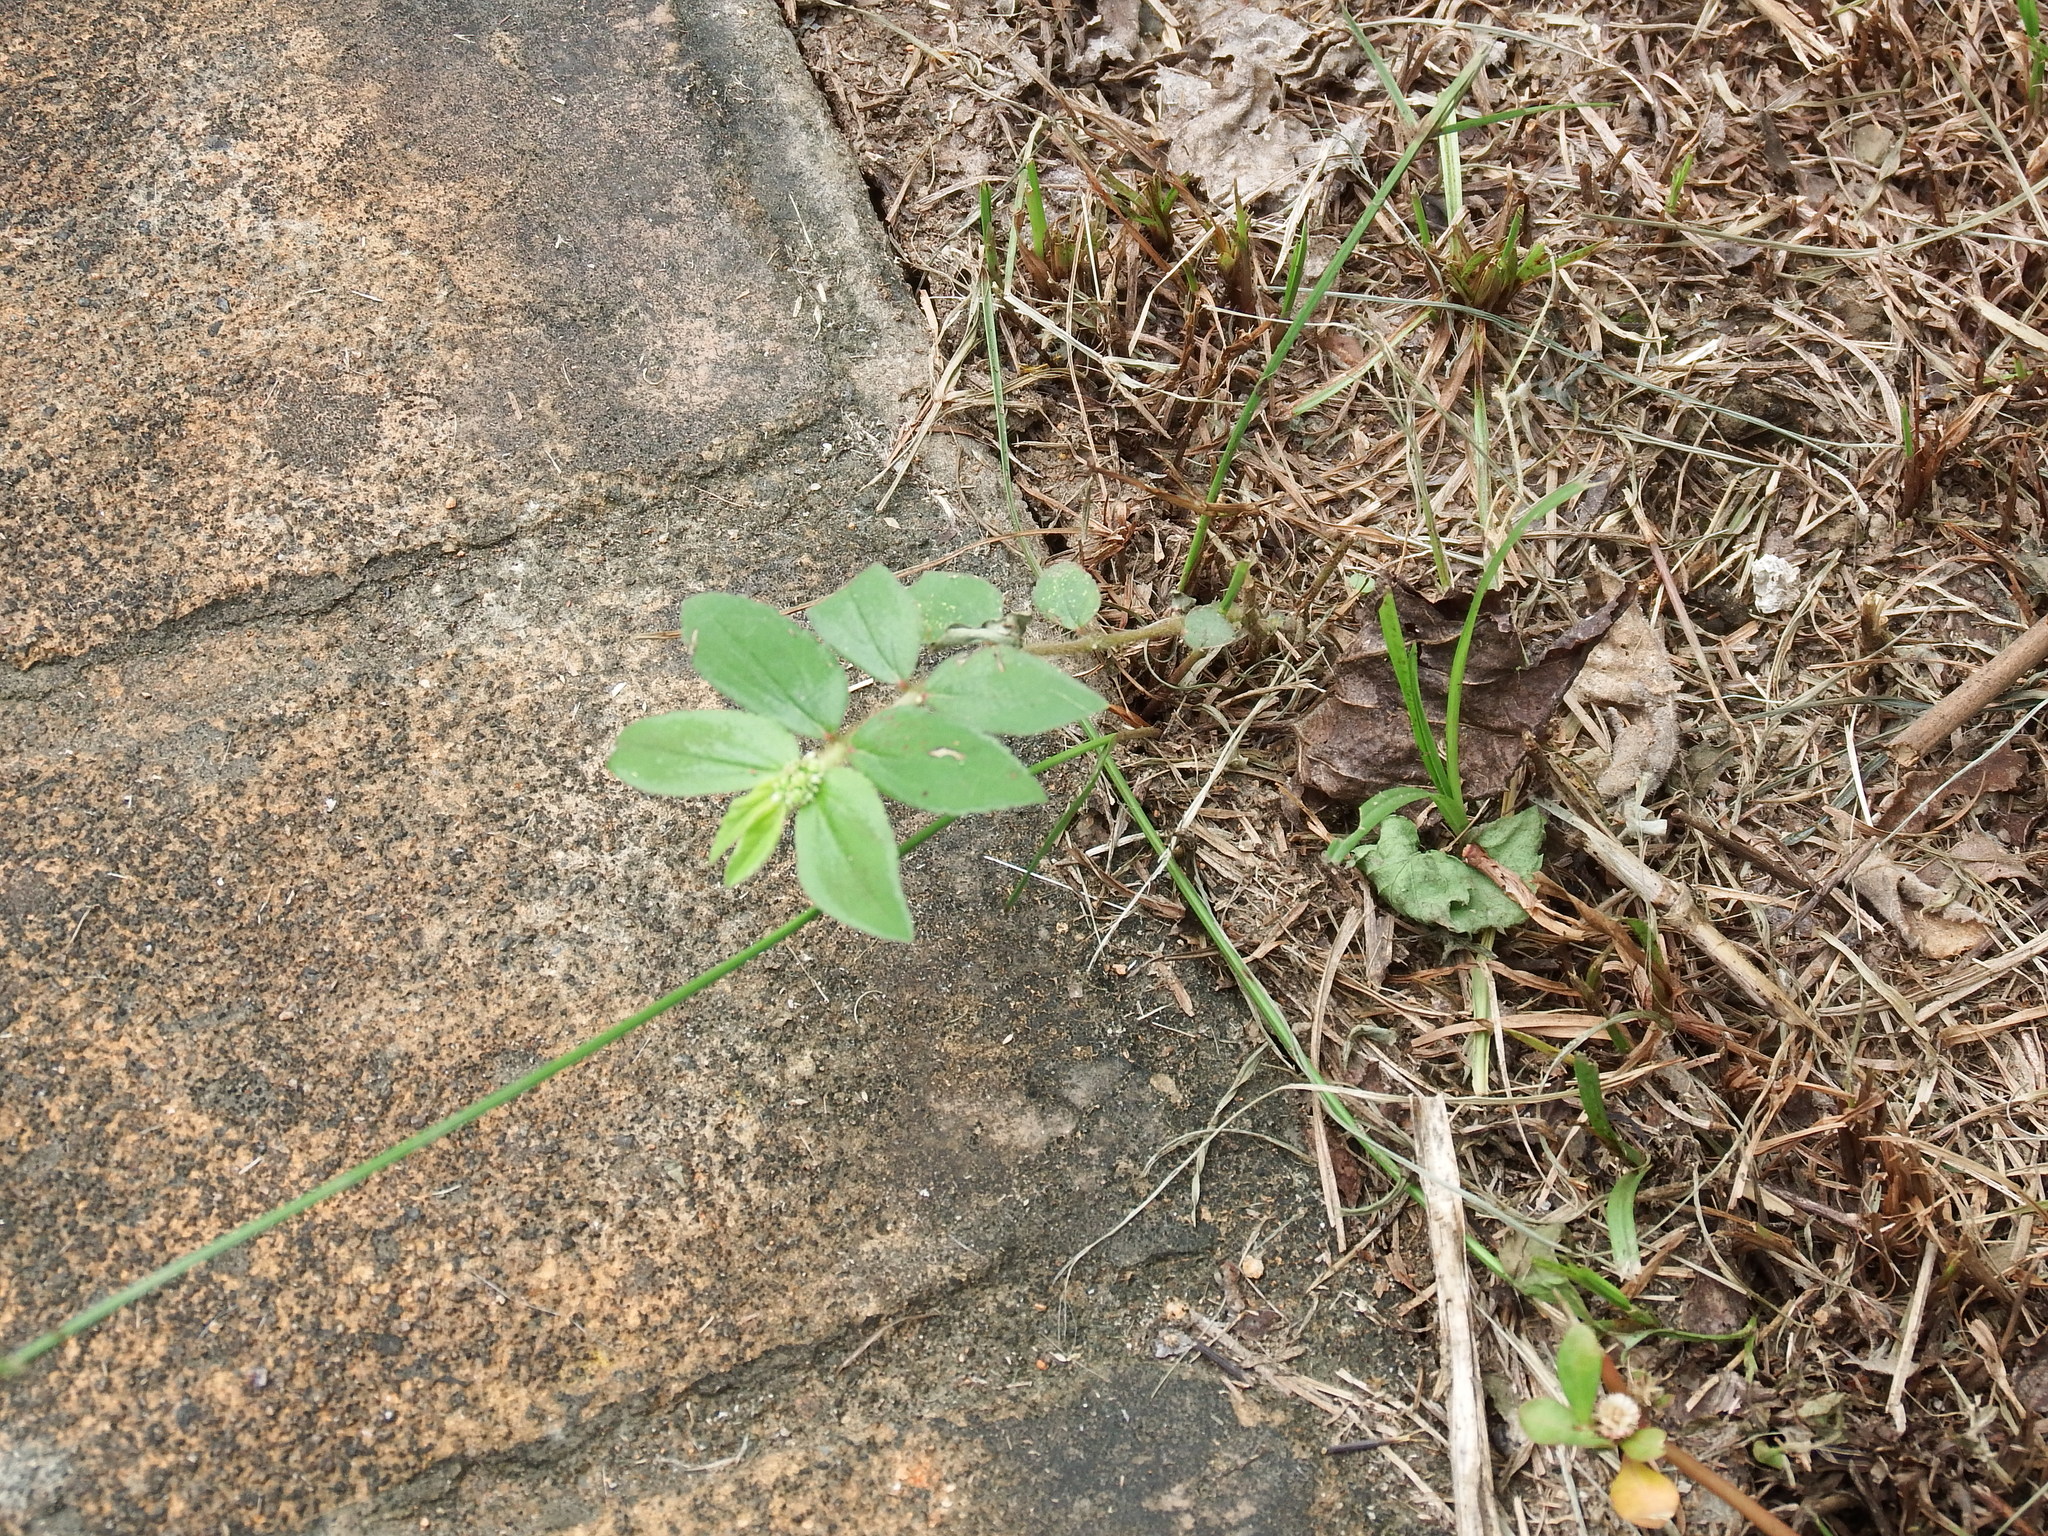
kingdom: Plantae
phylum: Tracheophyta
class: Magnoliopsida
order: Malpighiales
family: Euphorbiaceae
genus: Euphorbia
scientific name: Euphorbia hirta
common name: Pillpod sandmat
